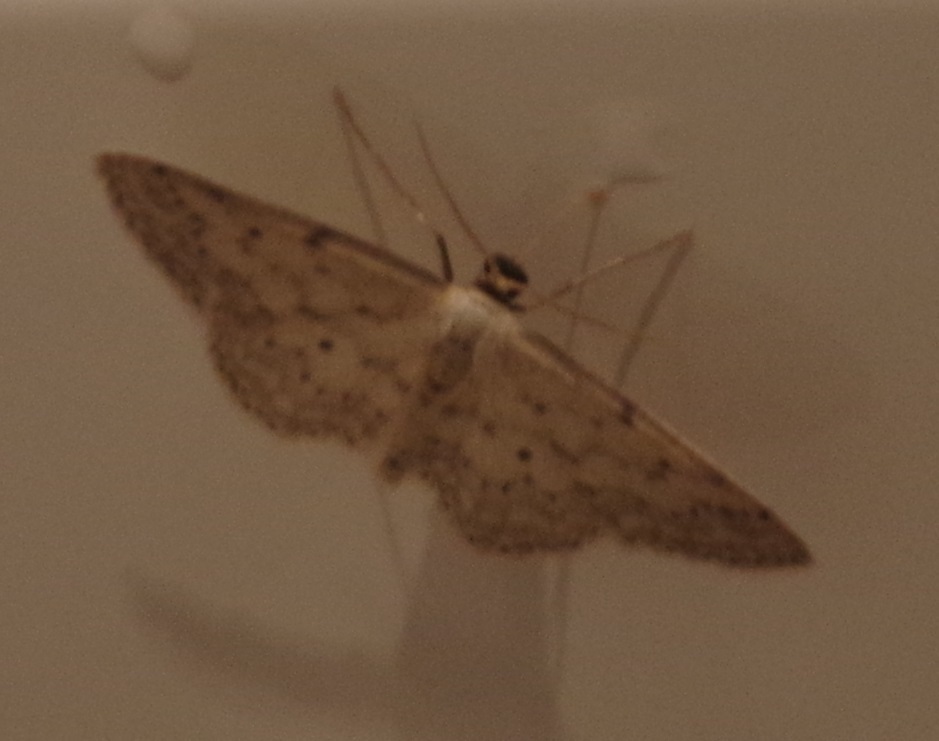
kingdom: Animalia
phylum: Arthropoda
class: Insecta
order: Lepidoptera
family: Geometridae
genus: Idaea
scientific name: Idaea seriata
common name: Small dusty wave
